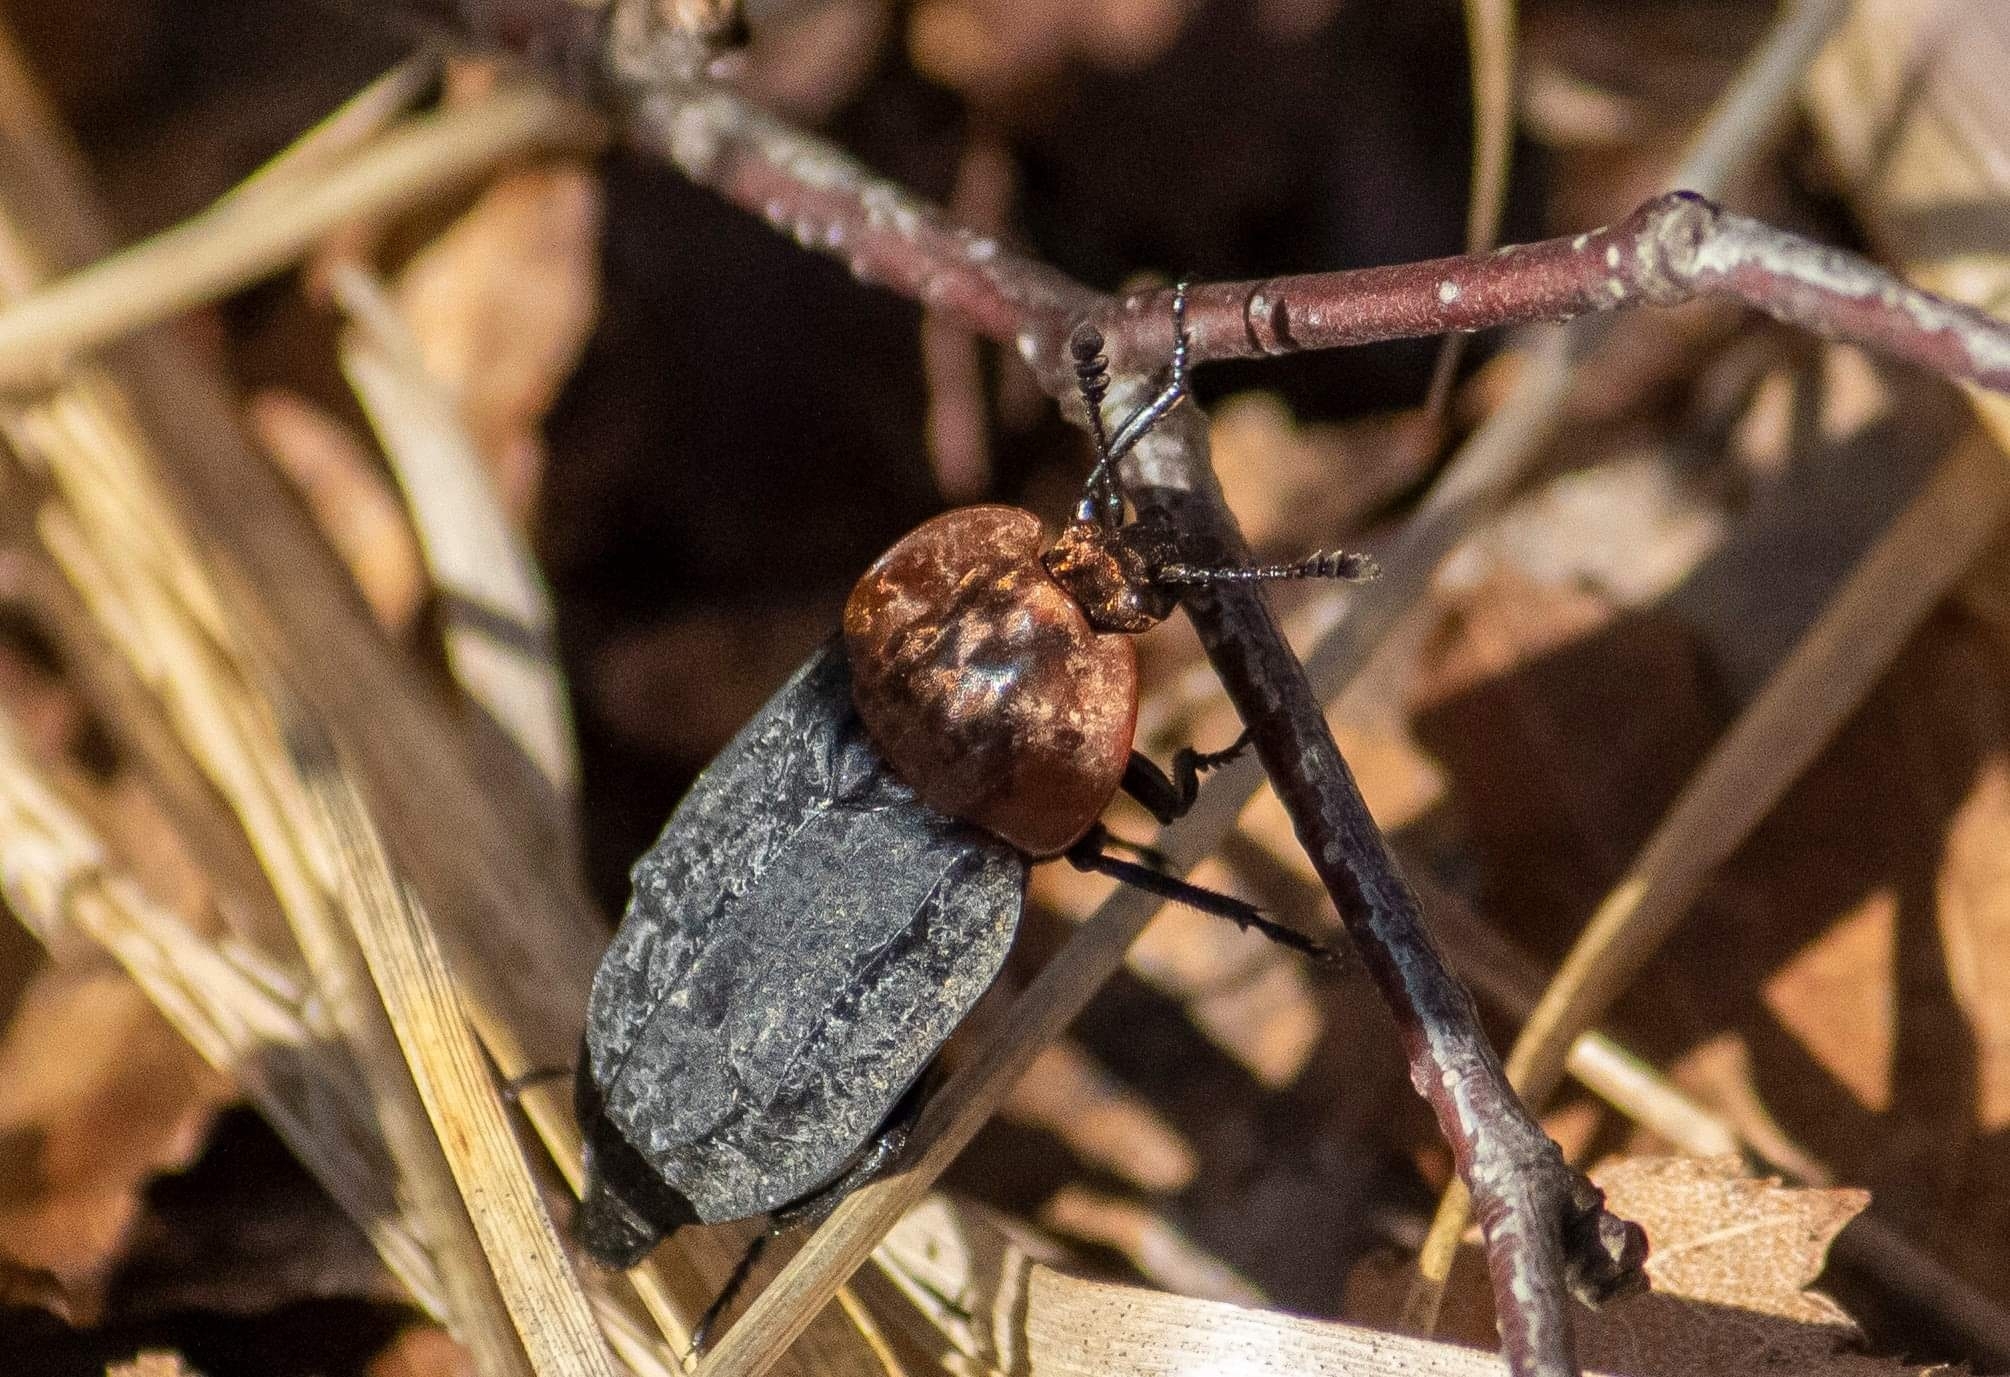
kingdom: Animalia
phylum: Arthropoda
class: Insecta
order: Coleoptera
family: Staphylinidae
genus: Oiceoptoma
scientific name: Oiceoptoma thoracicum
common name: Red-breasted carrion beetle
